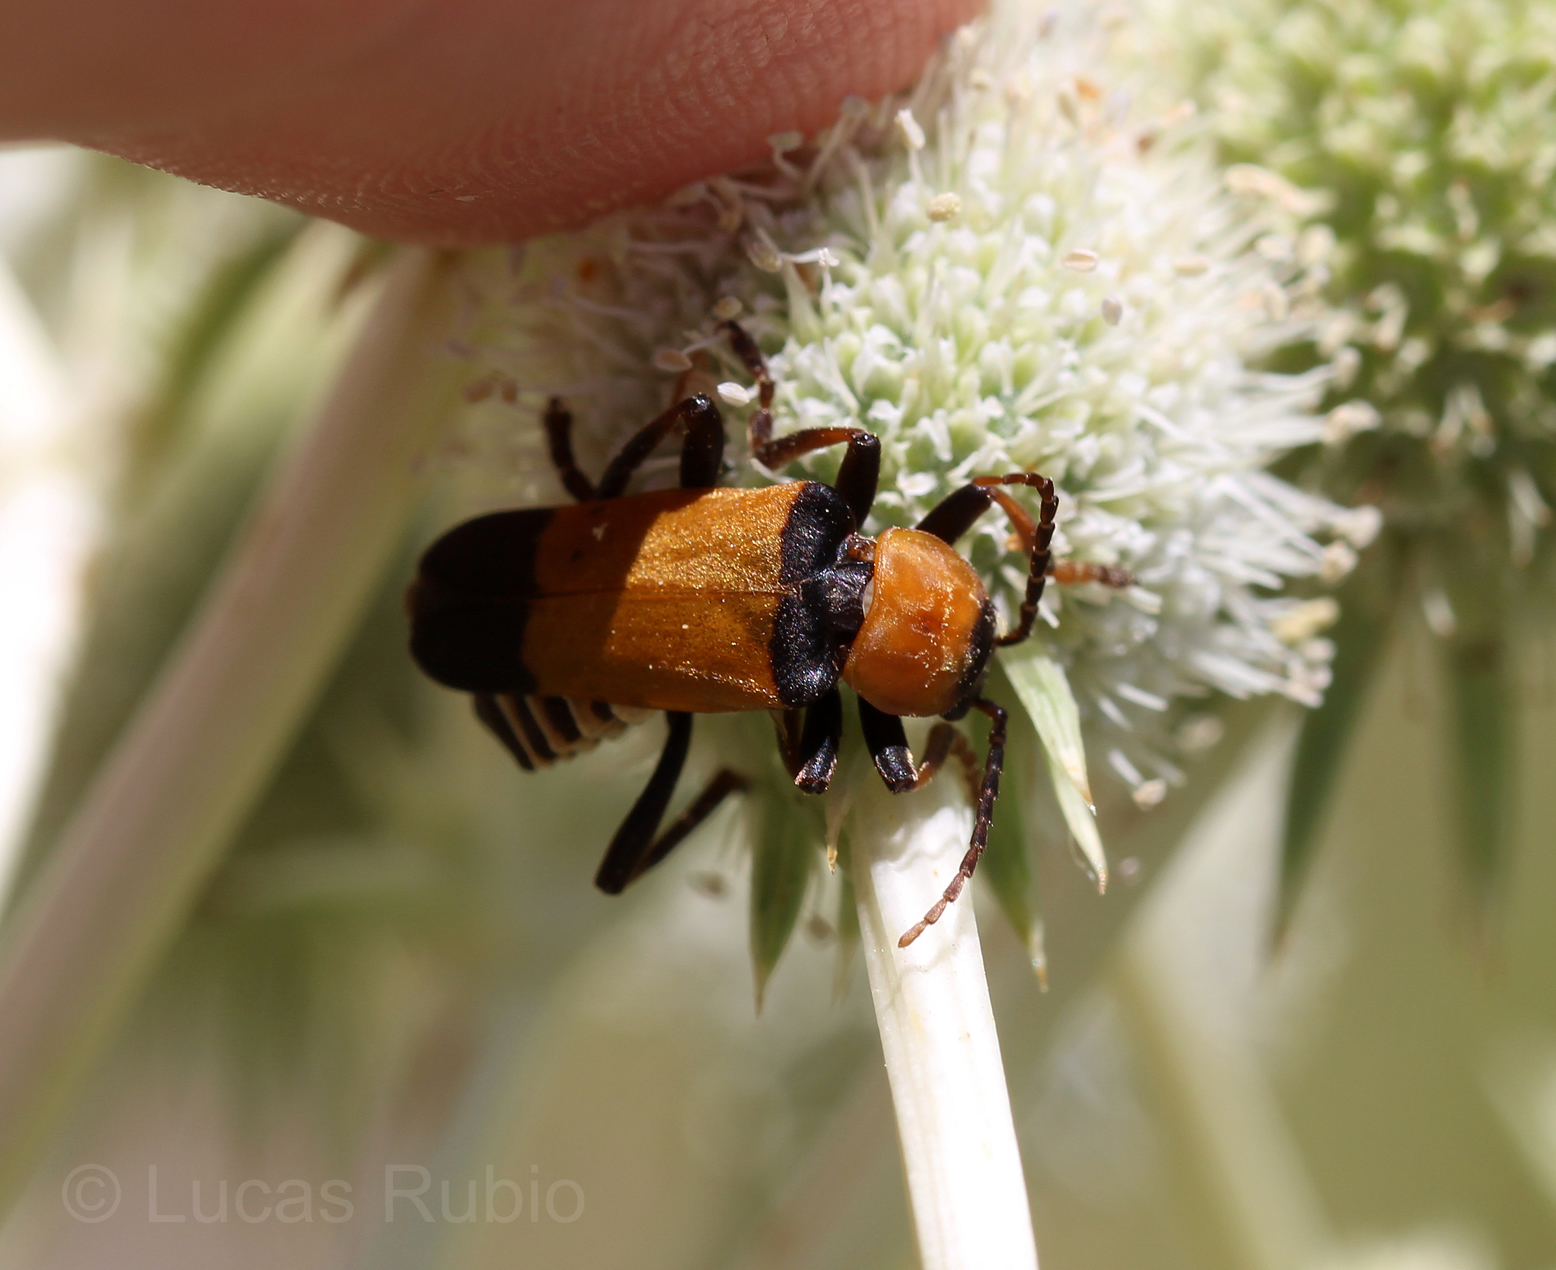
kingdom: Animalia
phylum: Arthropoda
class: Insecta
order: Coleoptera
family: Cantharidae
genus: Chauliognathus
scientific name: Chauliognathus
